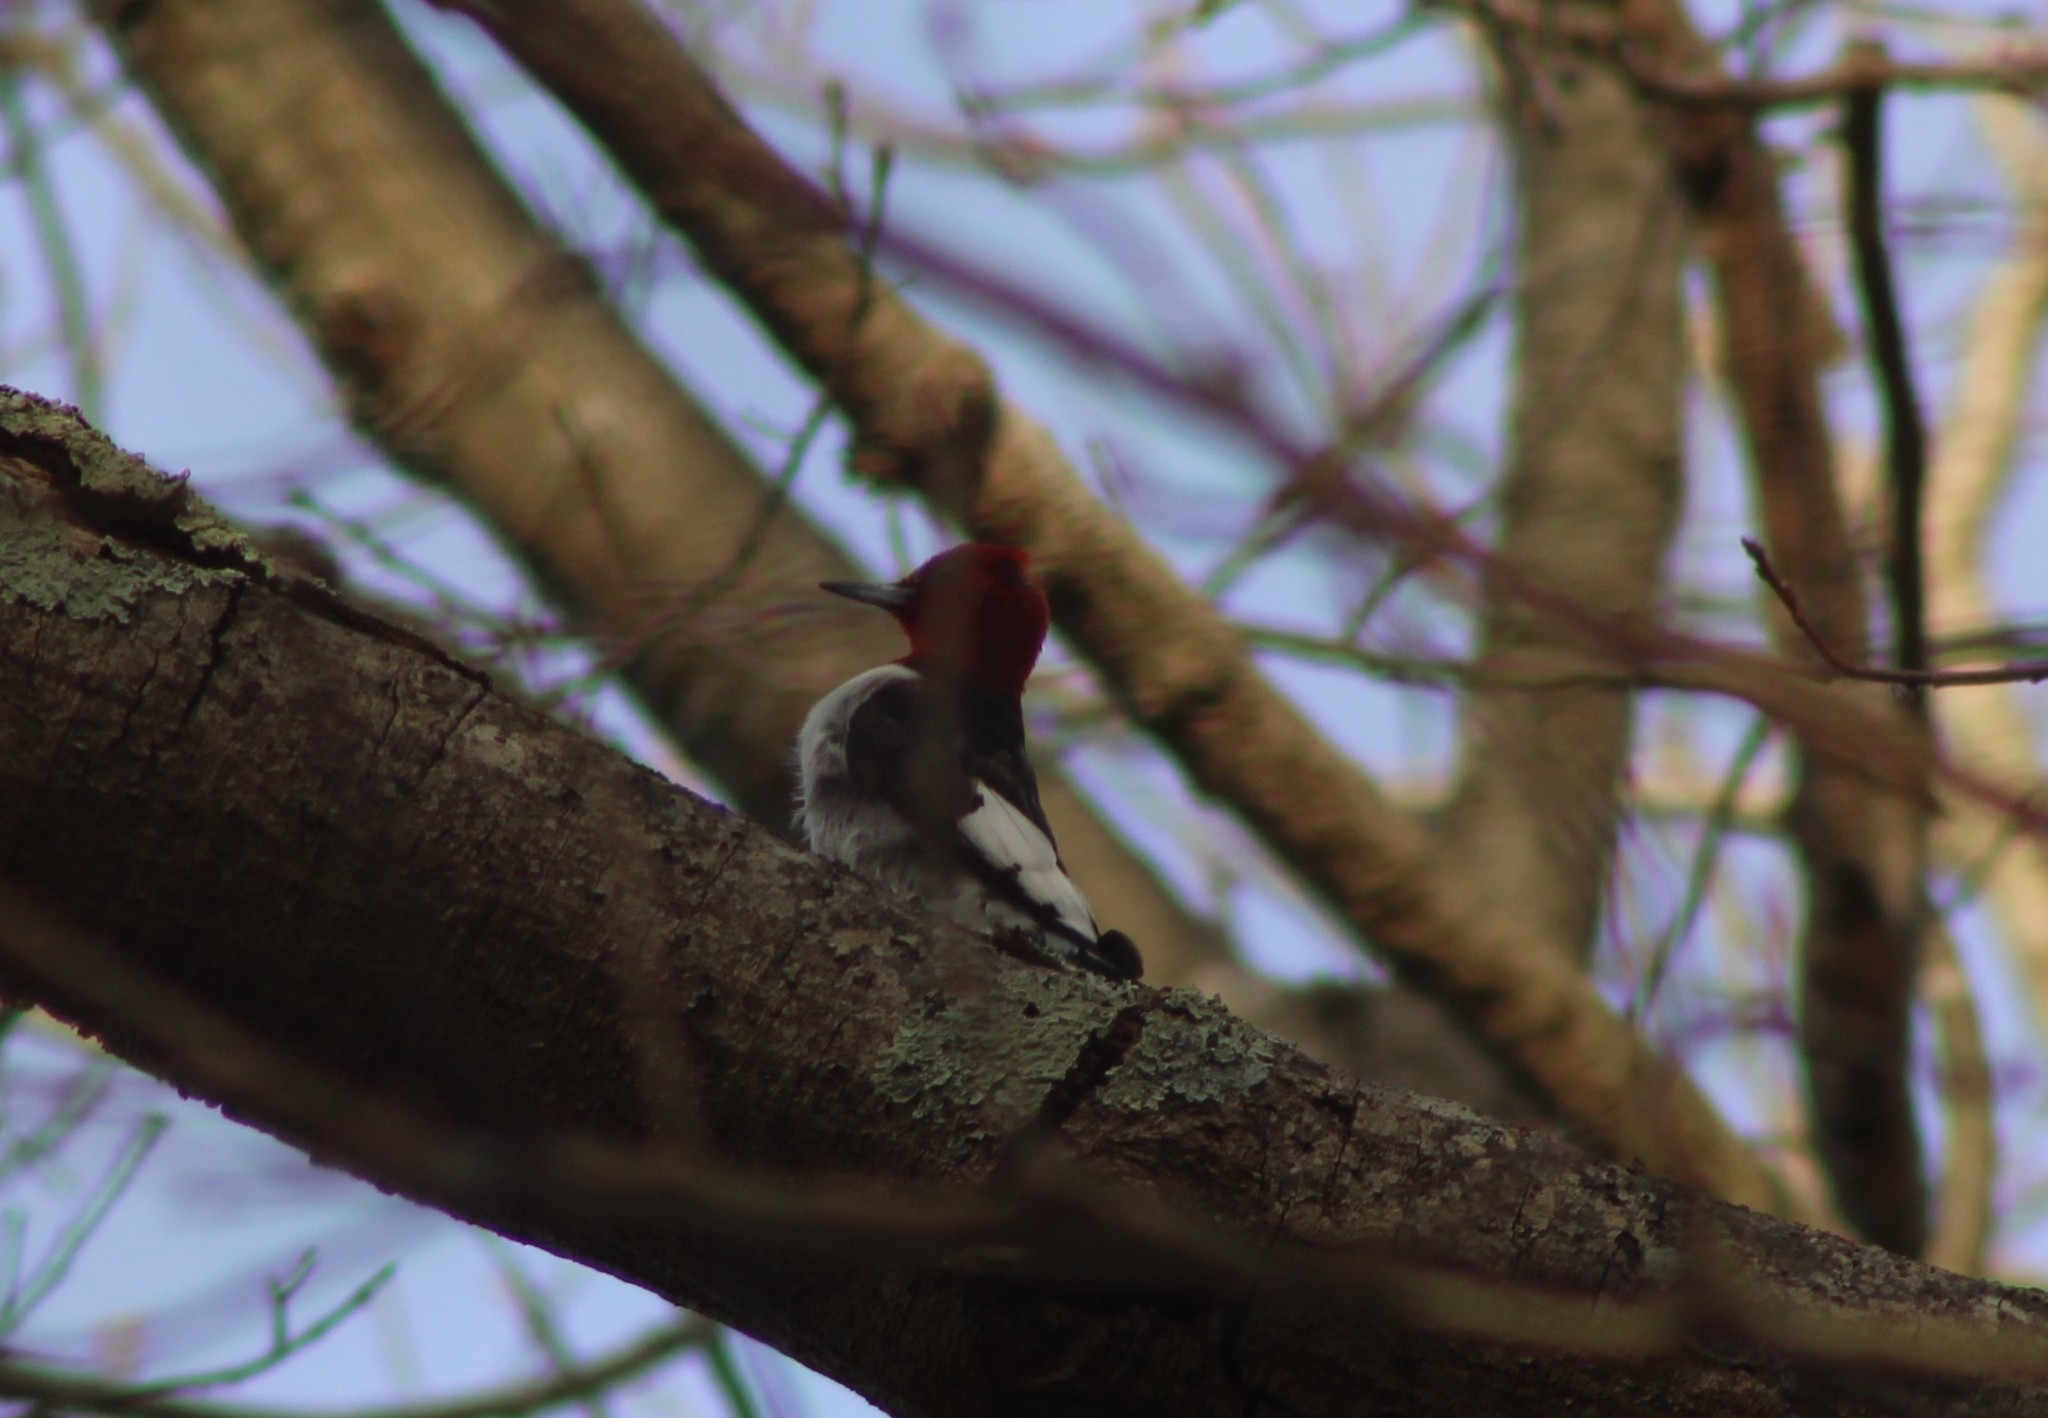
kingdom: Animalia
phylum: Chordata
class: Aves
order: Piciformes
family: Picidae
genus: Melanerpes
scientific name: Melanerpes erythrocephalus
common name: Red-headed woodpecker
